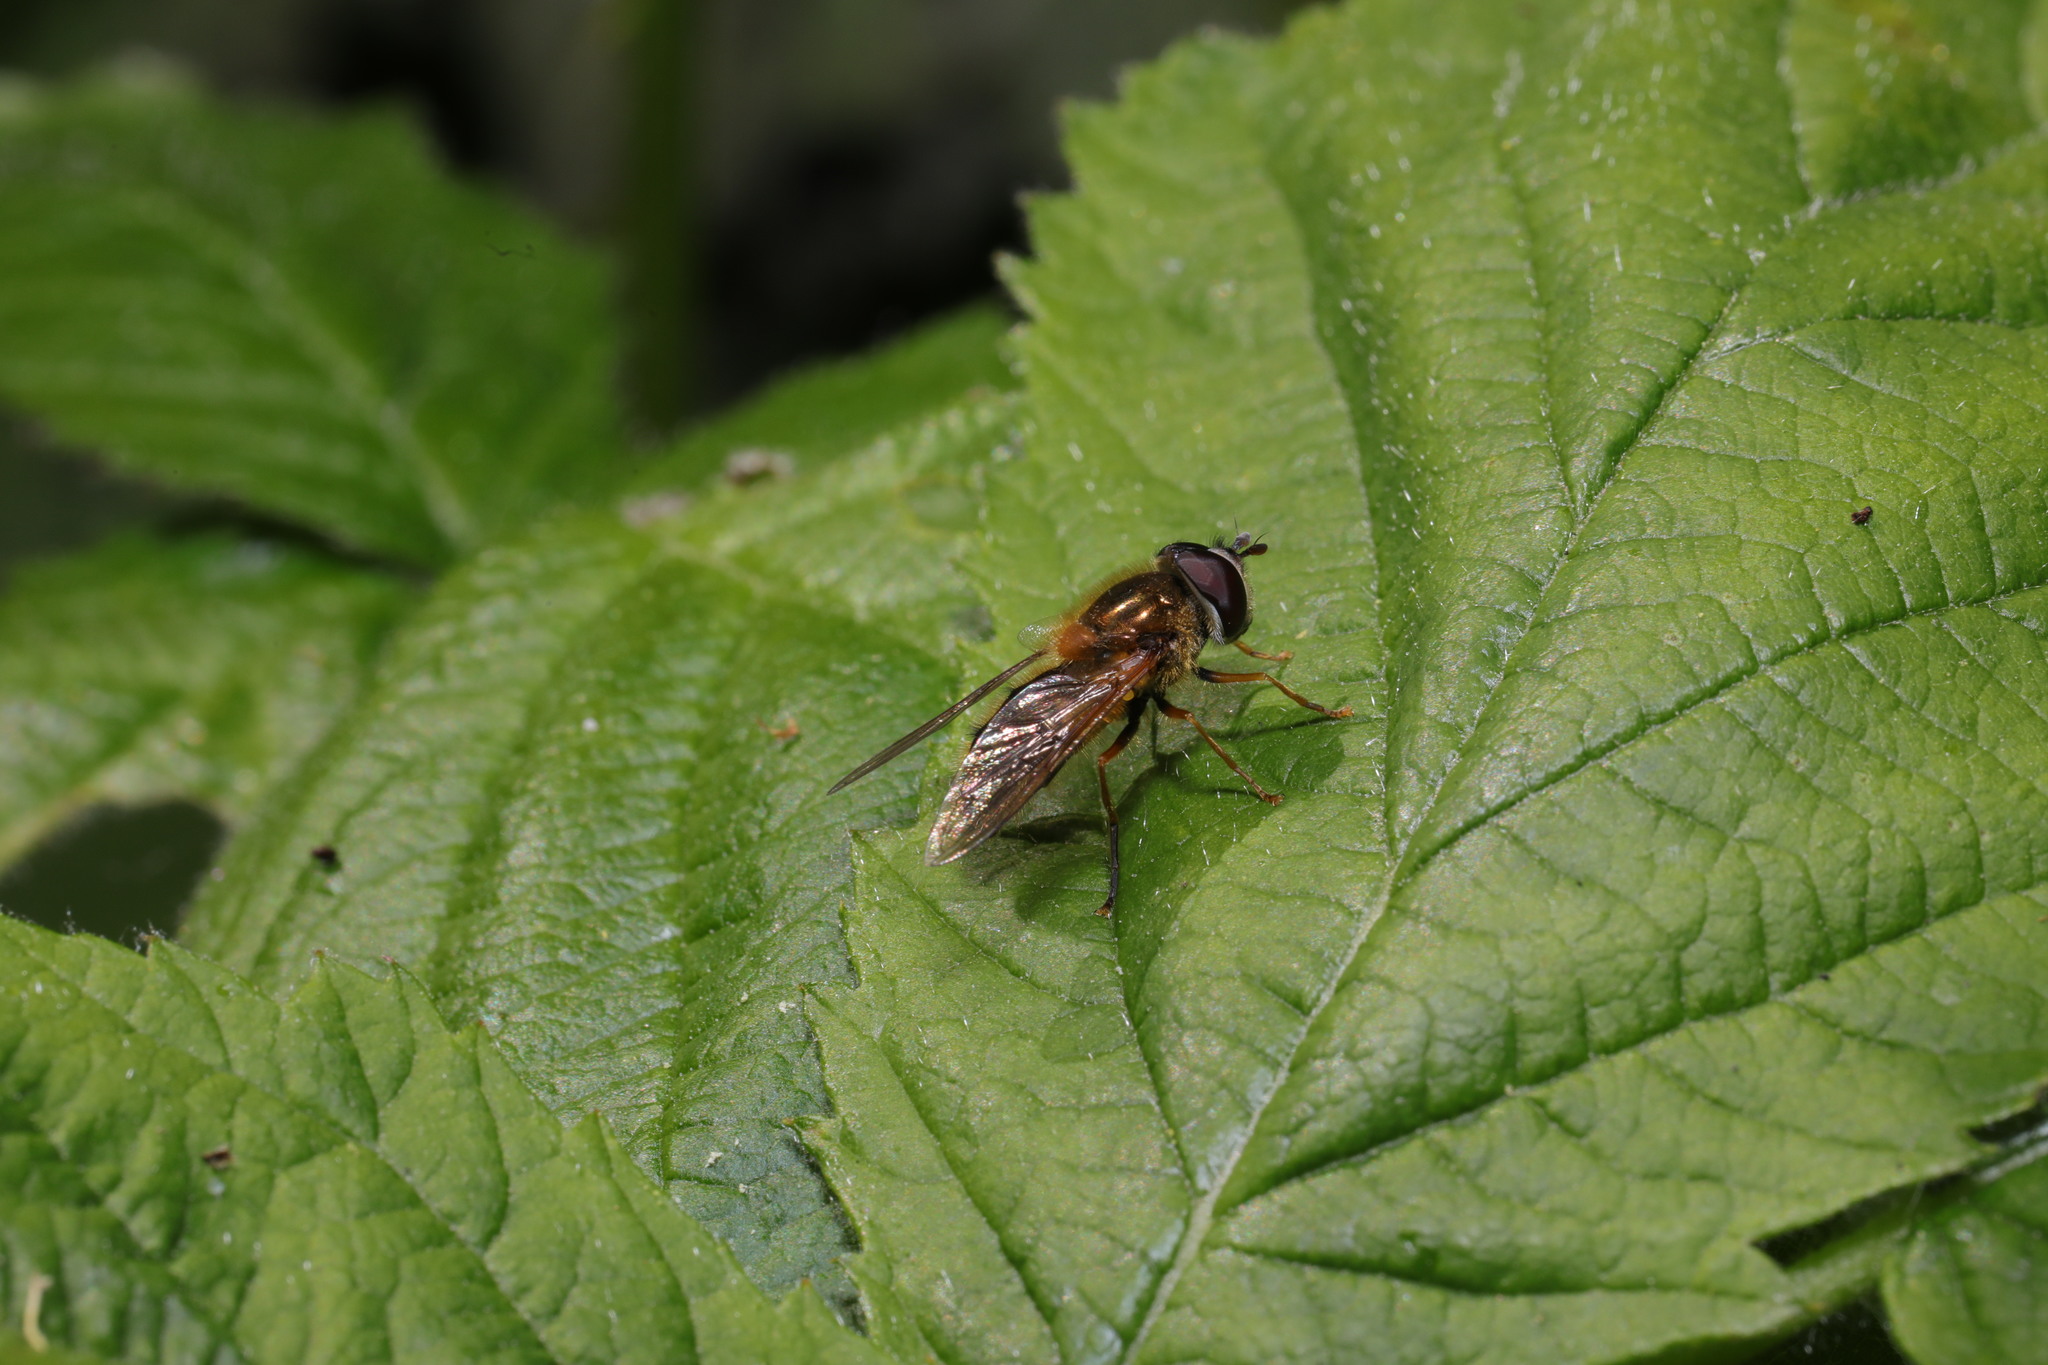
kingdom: Animalia
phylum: Arthropoda
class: Insecta
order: Diptera
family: Syrphidae
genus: Epistrophe
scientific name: Epistrophe eligans
